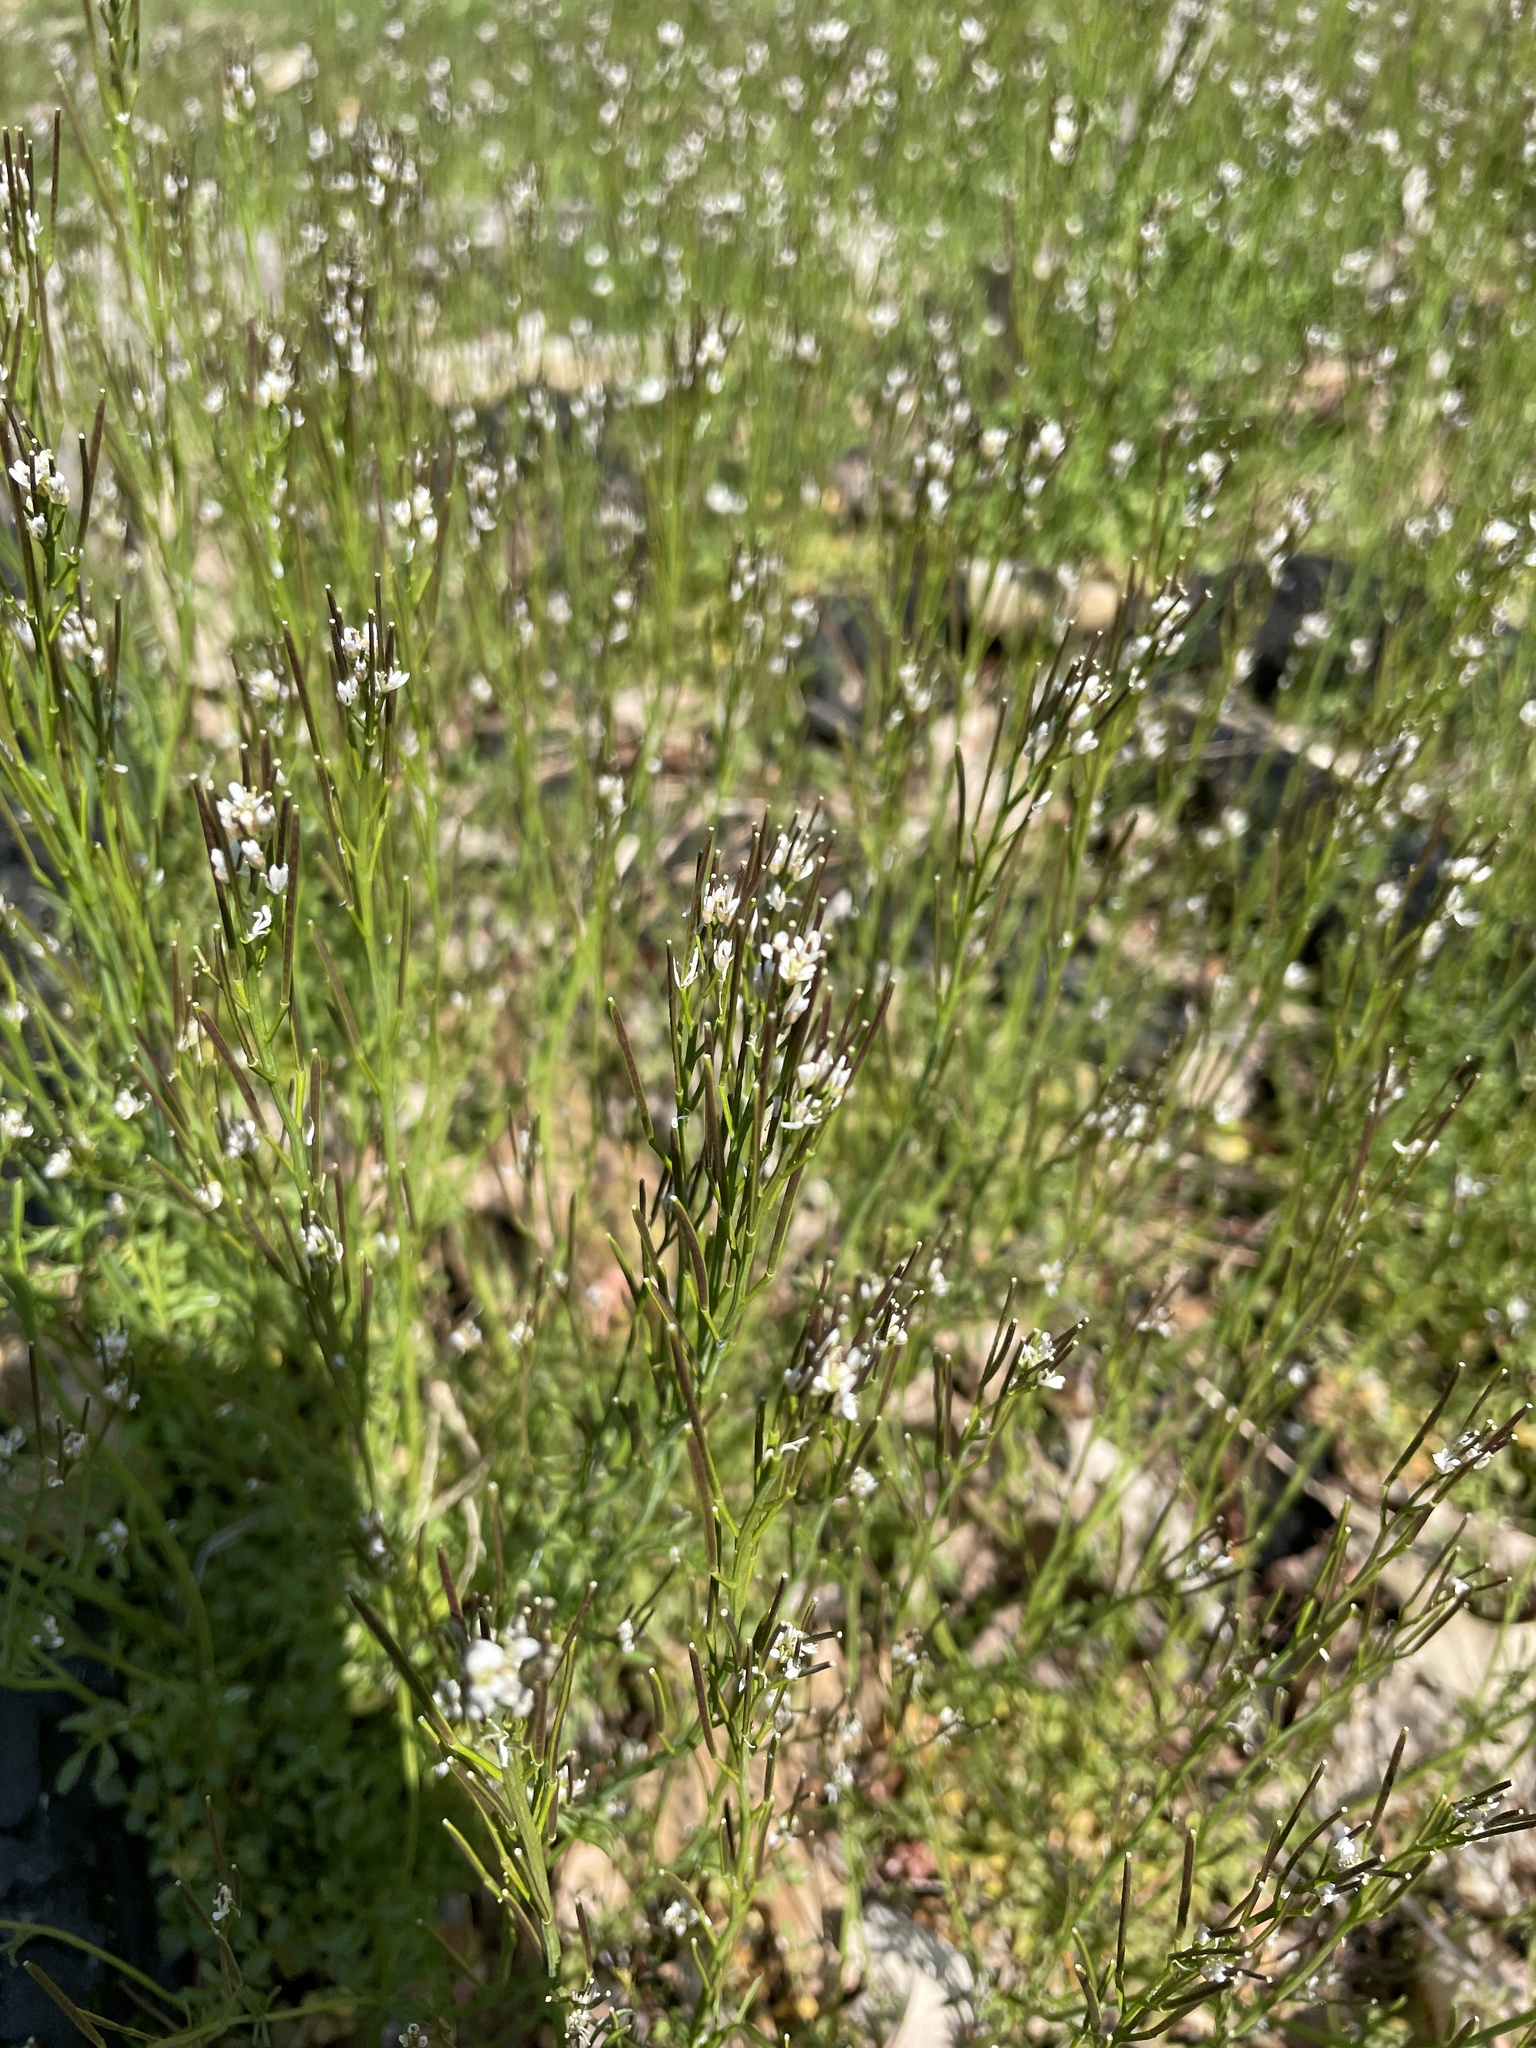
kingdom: Plantae
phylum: Tracheophyta
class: Magnoliopsida
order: Brassicales
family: Brassicaceae
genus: Cardamine
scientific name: Cardamine hirsuta
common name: Hairy bittercress
